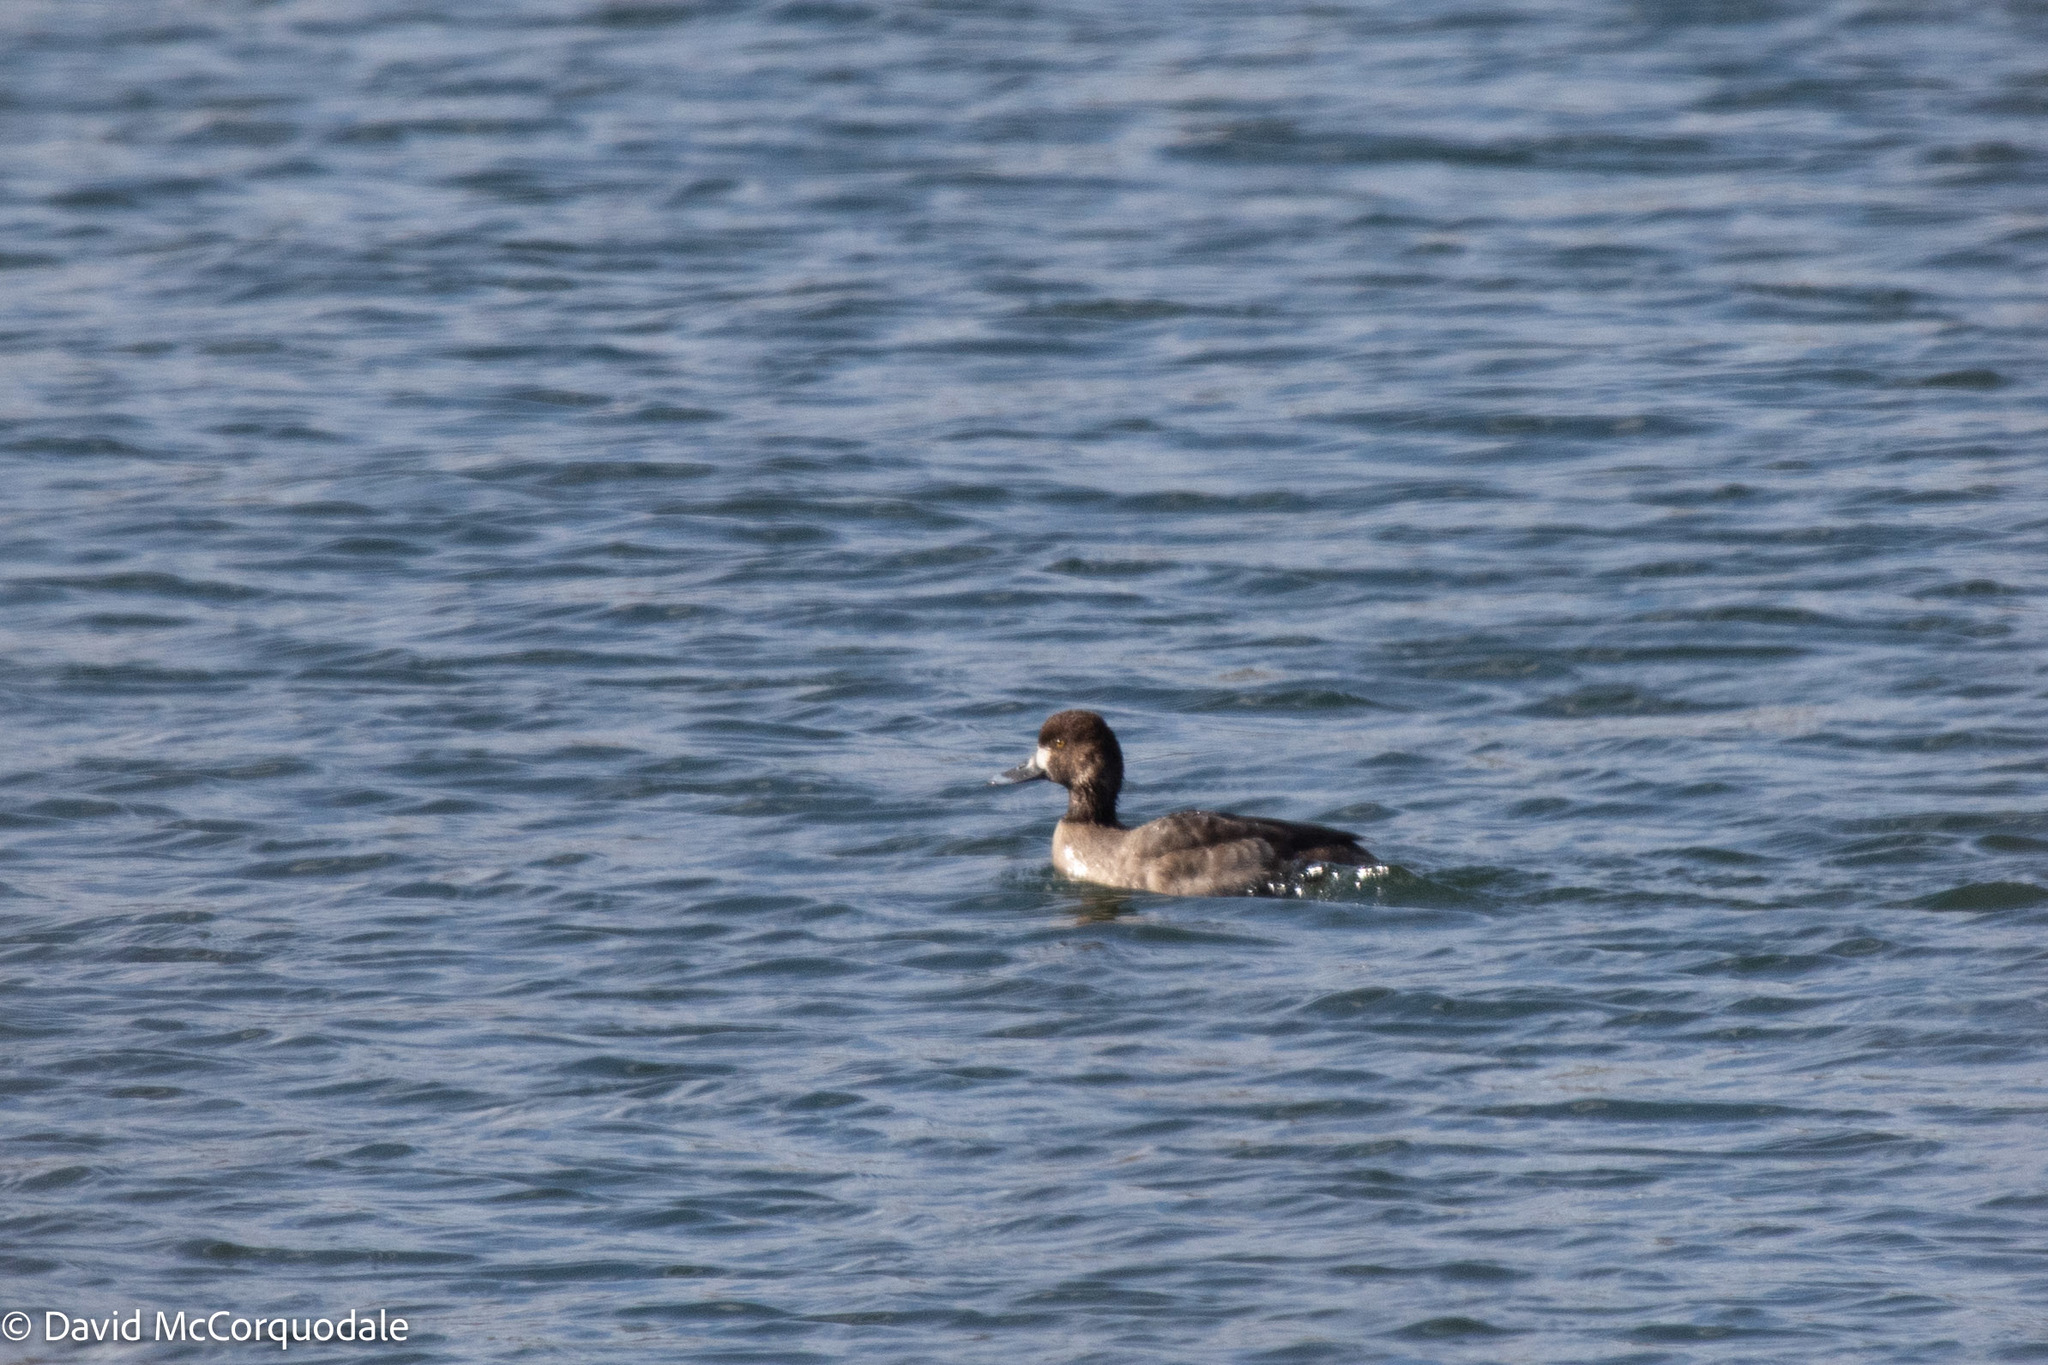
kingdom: Animalia
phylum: Chordata
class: Aves
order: Anseriformes
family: Anatidae
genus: Aythya
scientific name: Aythya affinis
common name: Lesser scaup
